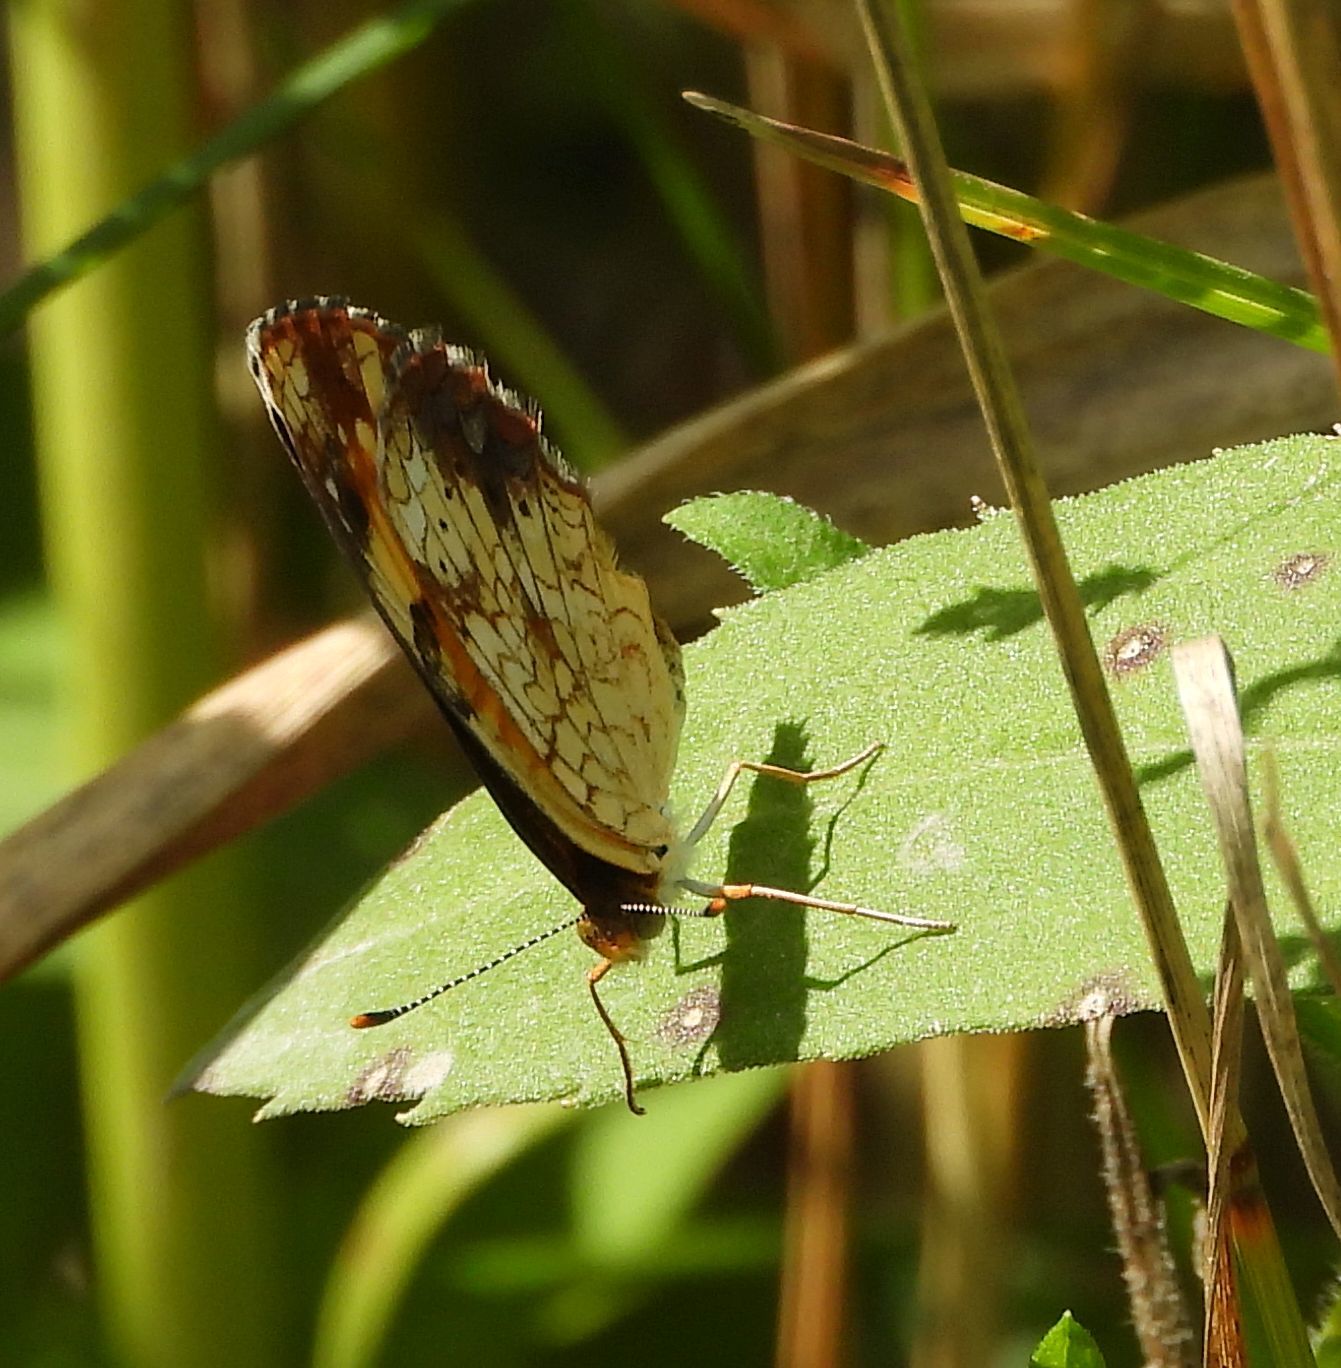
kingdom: Animalia
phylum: Arthropoda
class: Insecta
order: Lepidoptera
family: Nymphalidae
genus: Phyciodes
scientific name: Phyciodes tharos
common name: Pearl crescent
